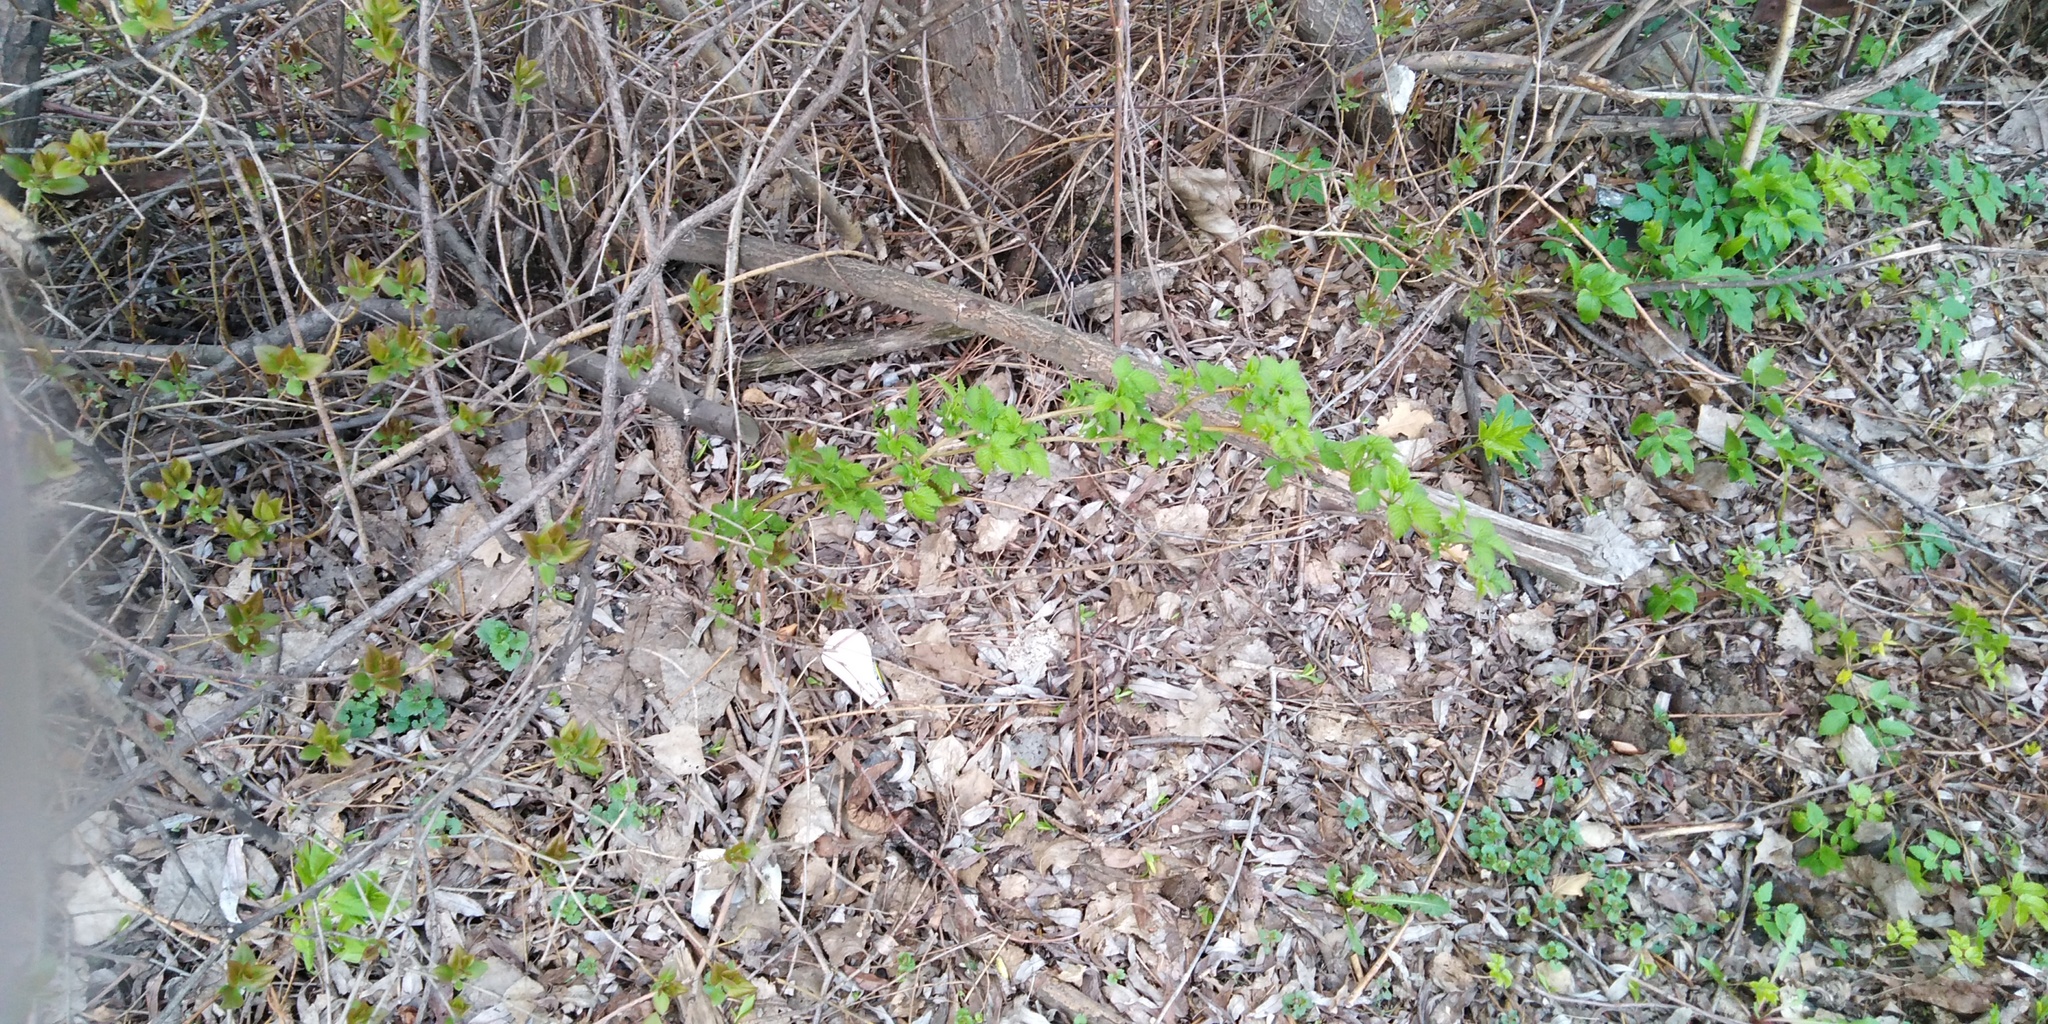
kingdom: Plantae
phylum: Tracheophyta
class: Magnoliopsida
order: Rosales
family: Rosaceae
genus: Rubus
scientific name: Rubus idaeus
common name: Raspberry
